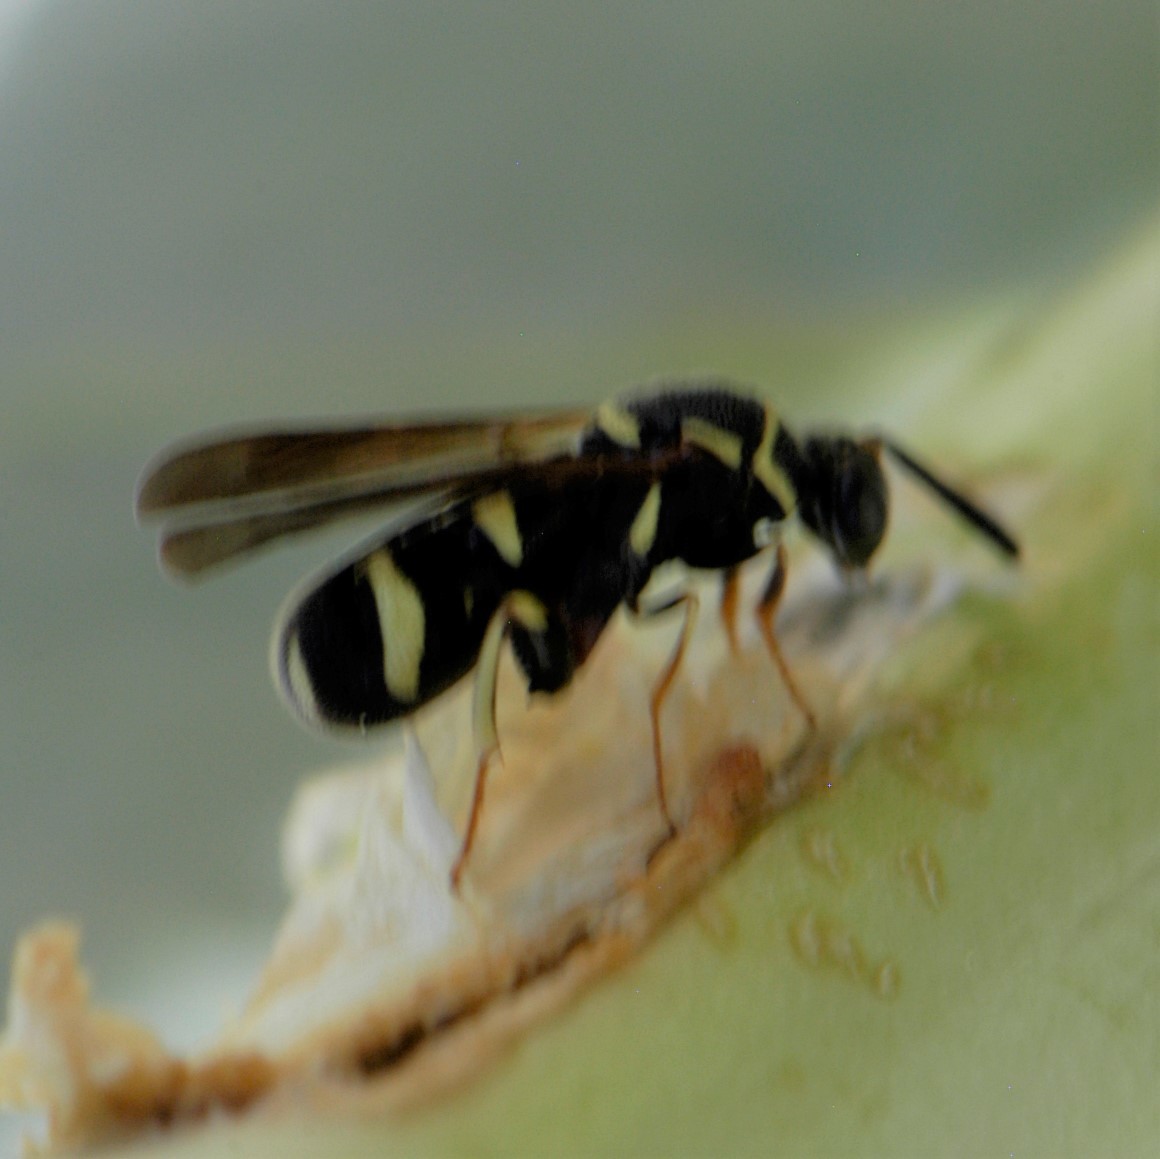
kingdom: Animalia
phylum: Arthropoda
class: Insecta
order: Hymenoptera
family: Leucospidae
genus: Leucospis
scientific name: Leucospis affinis
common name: Wasp
